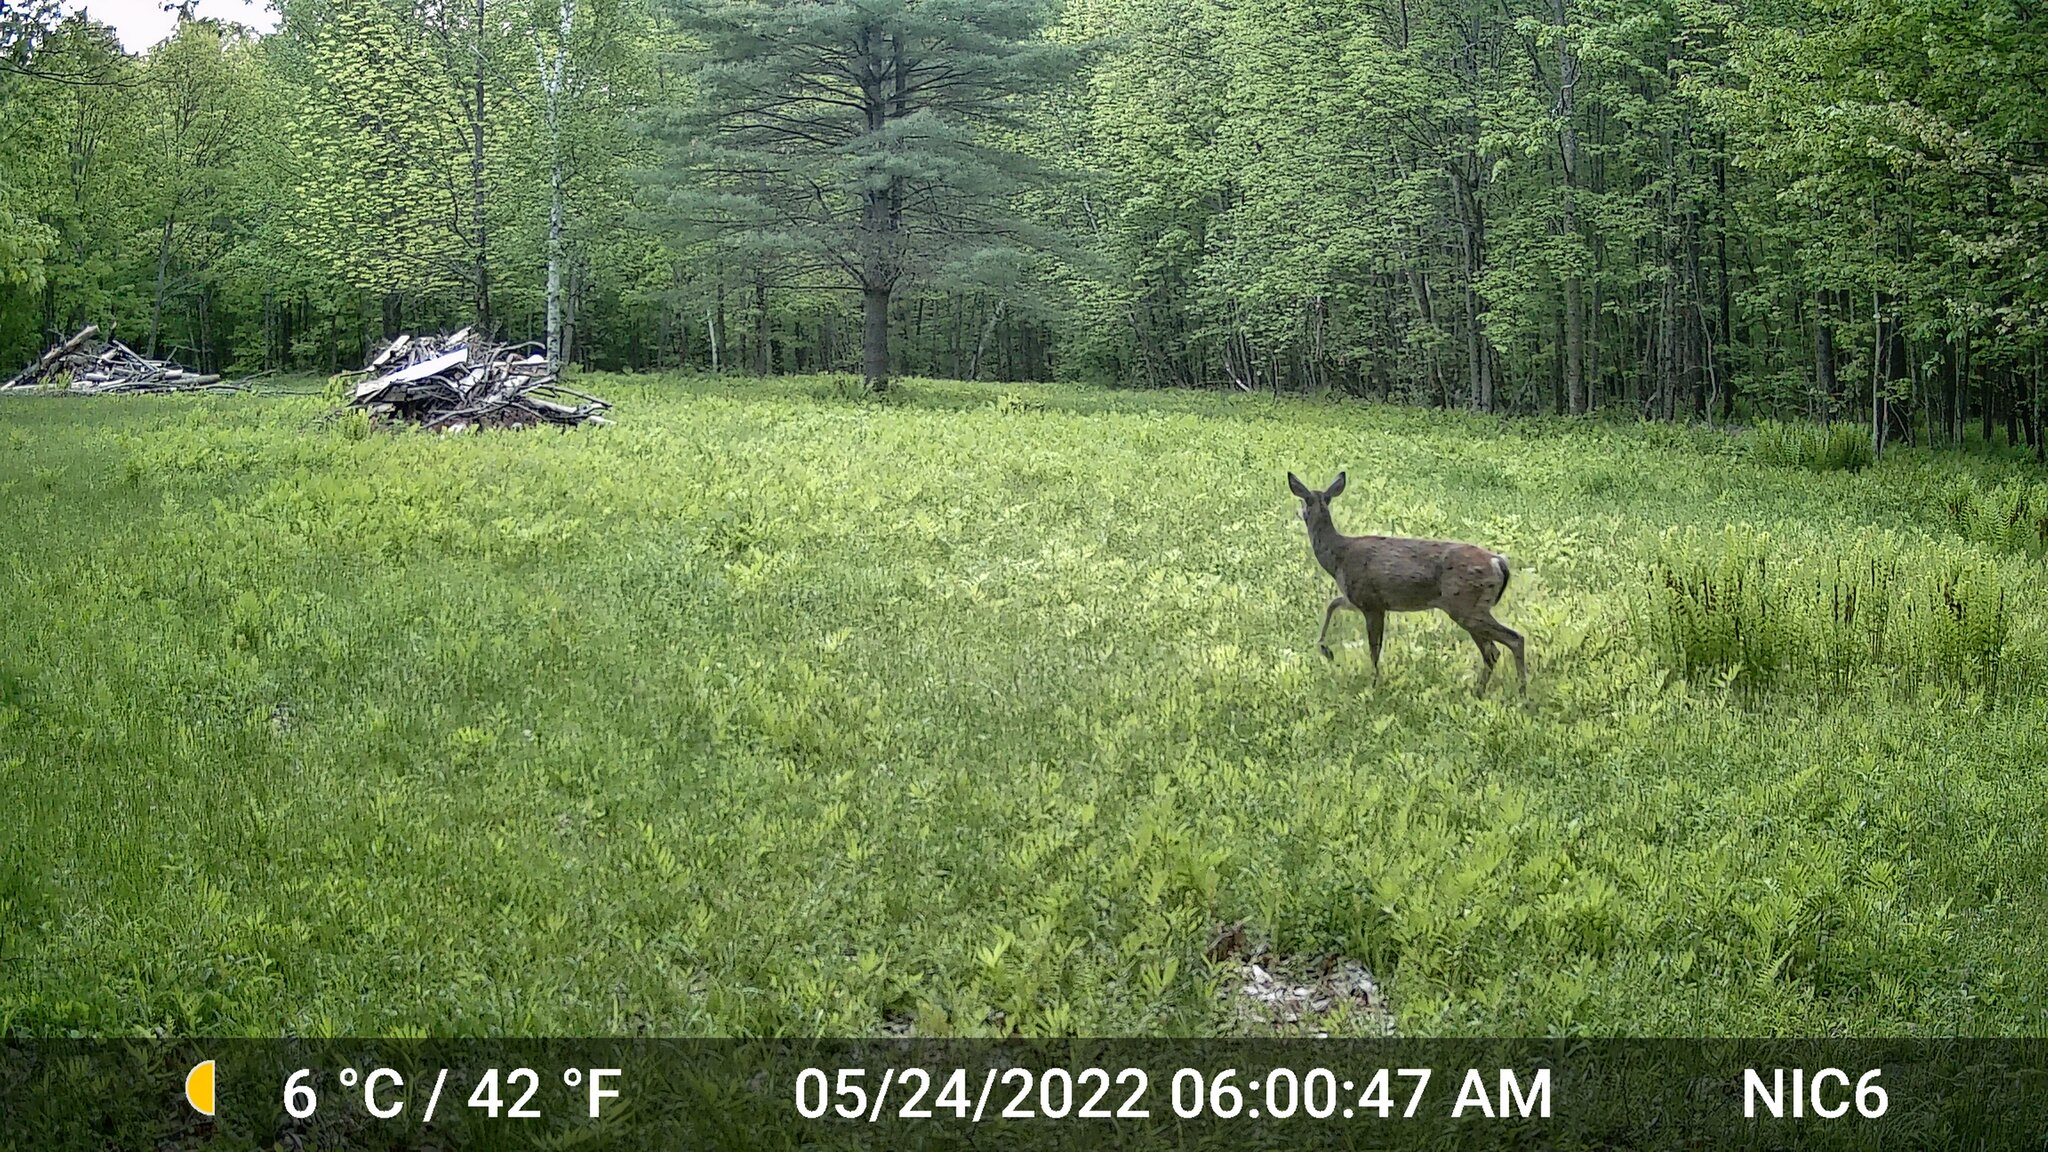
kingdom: Animalia
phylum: Chordata
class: Mammalia
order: Artiodactyla
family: Cervidae
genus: Odocoileus
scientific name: Odocoileus virginianus
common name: White-tailed deer
